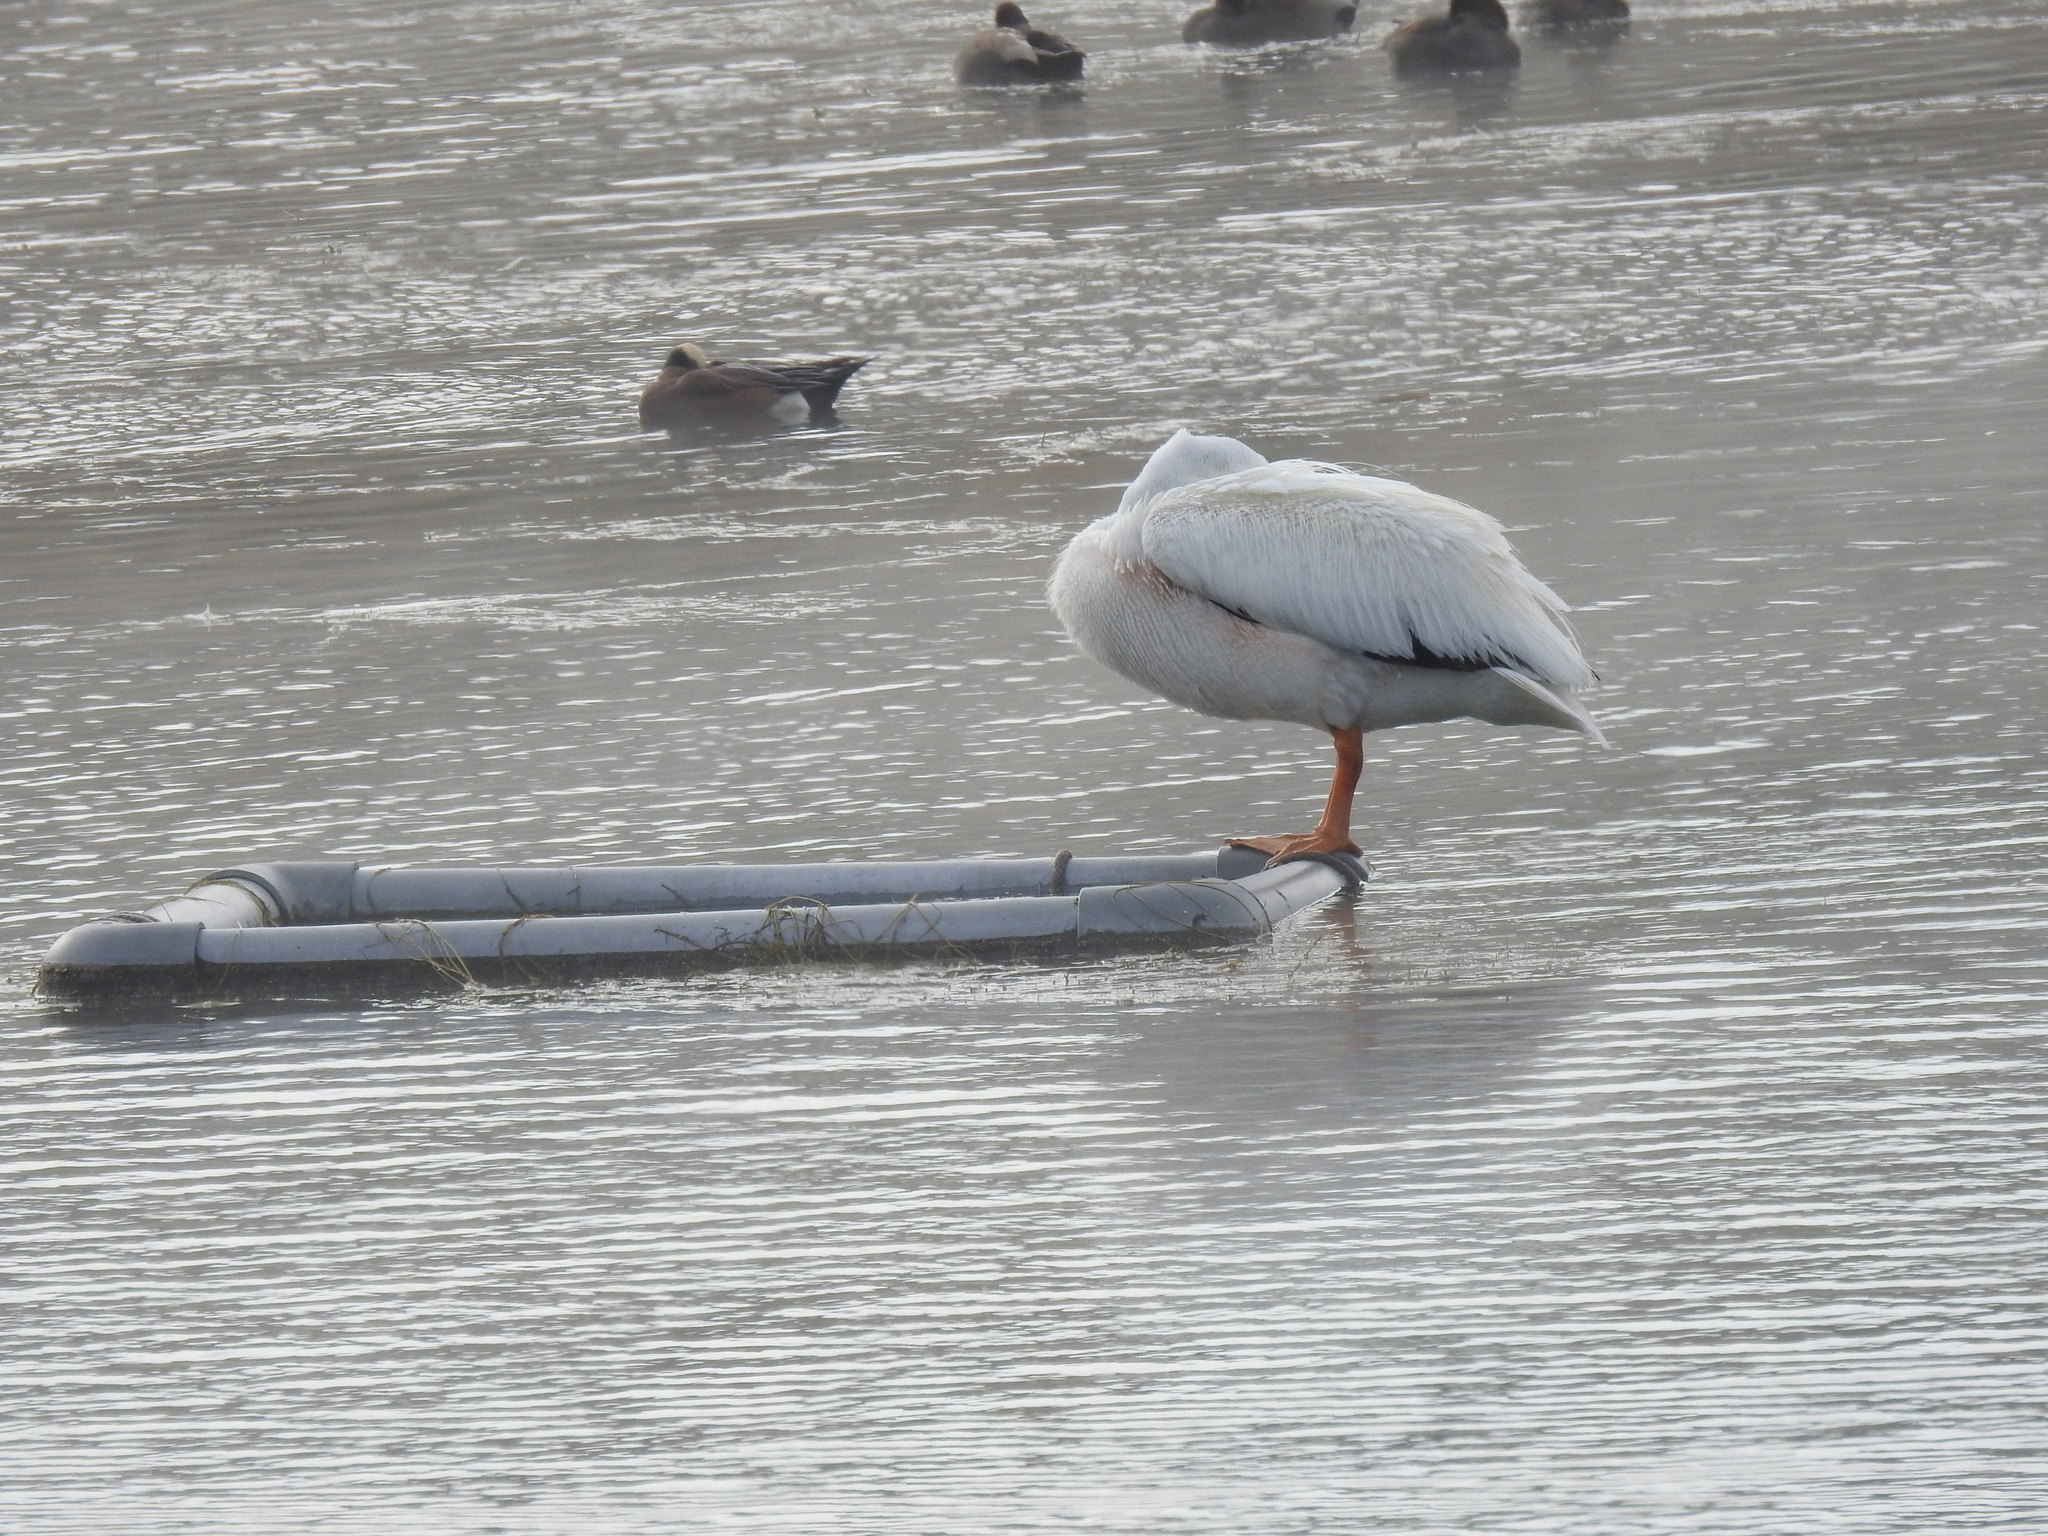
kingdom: Animalia
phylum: Chordata
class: Aves
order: Pelecaniformes
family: Pelecanidae
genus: Pelecanus
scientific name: Pelecanus erythrorhynchos
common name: American white pelican
